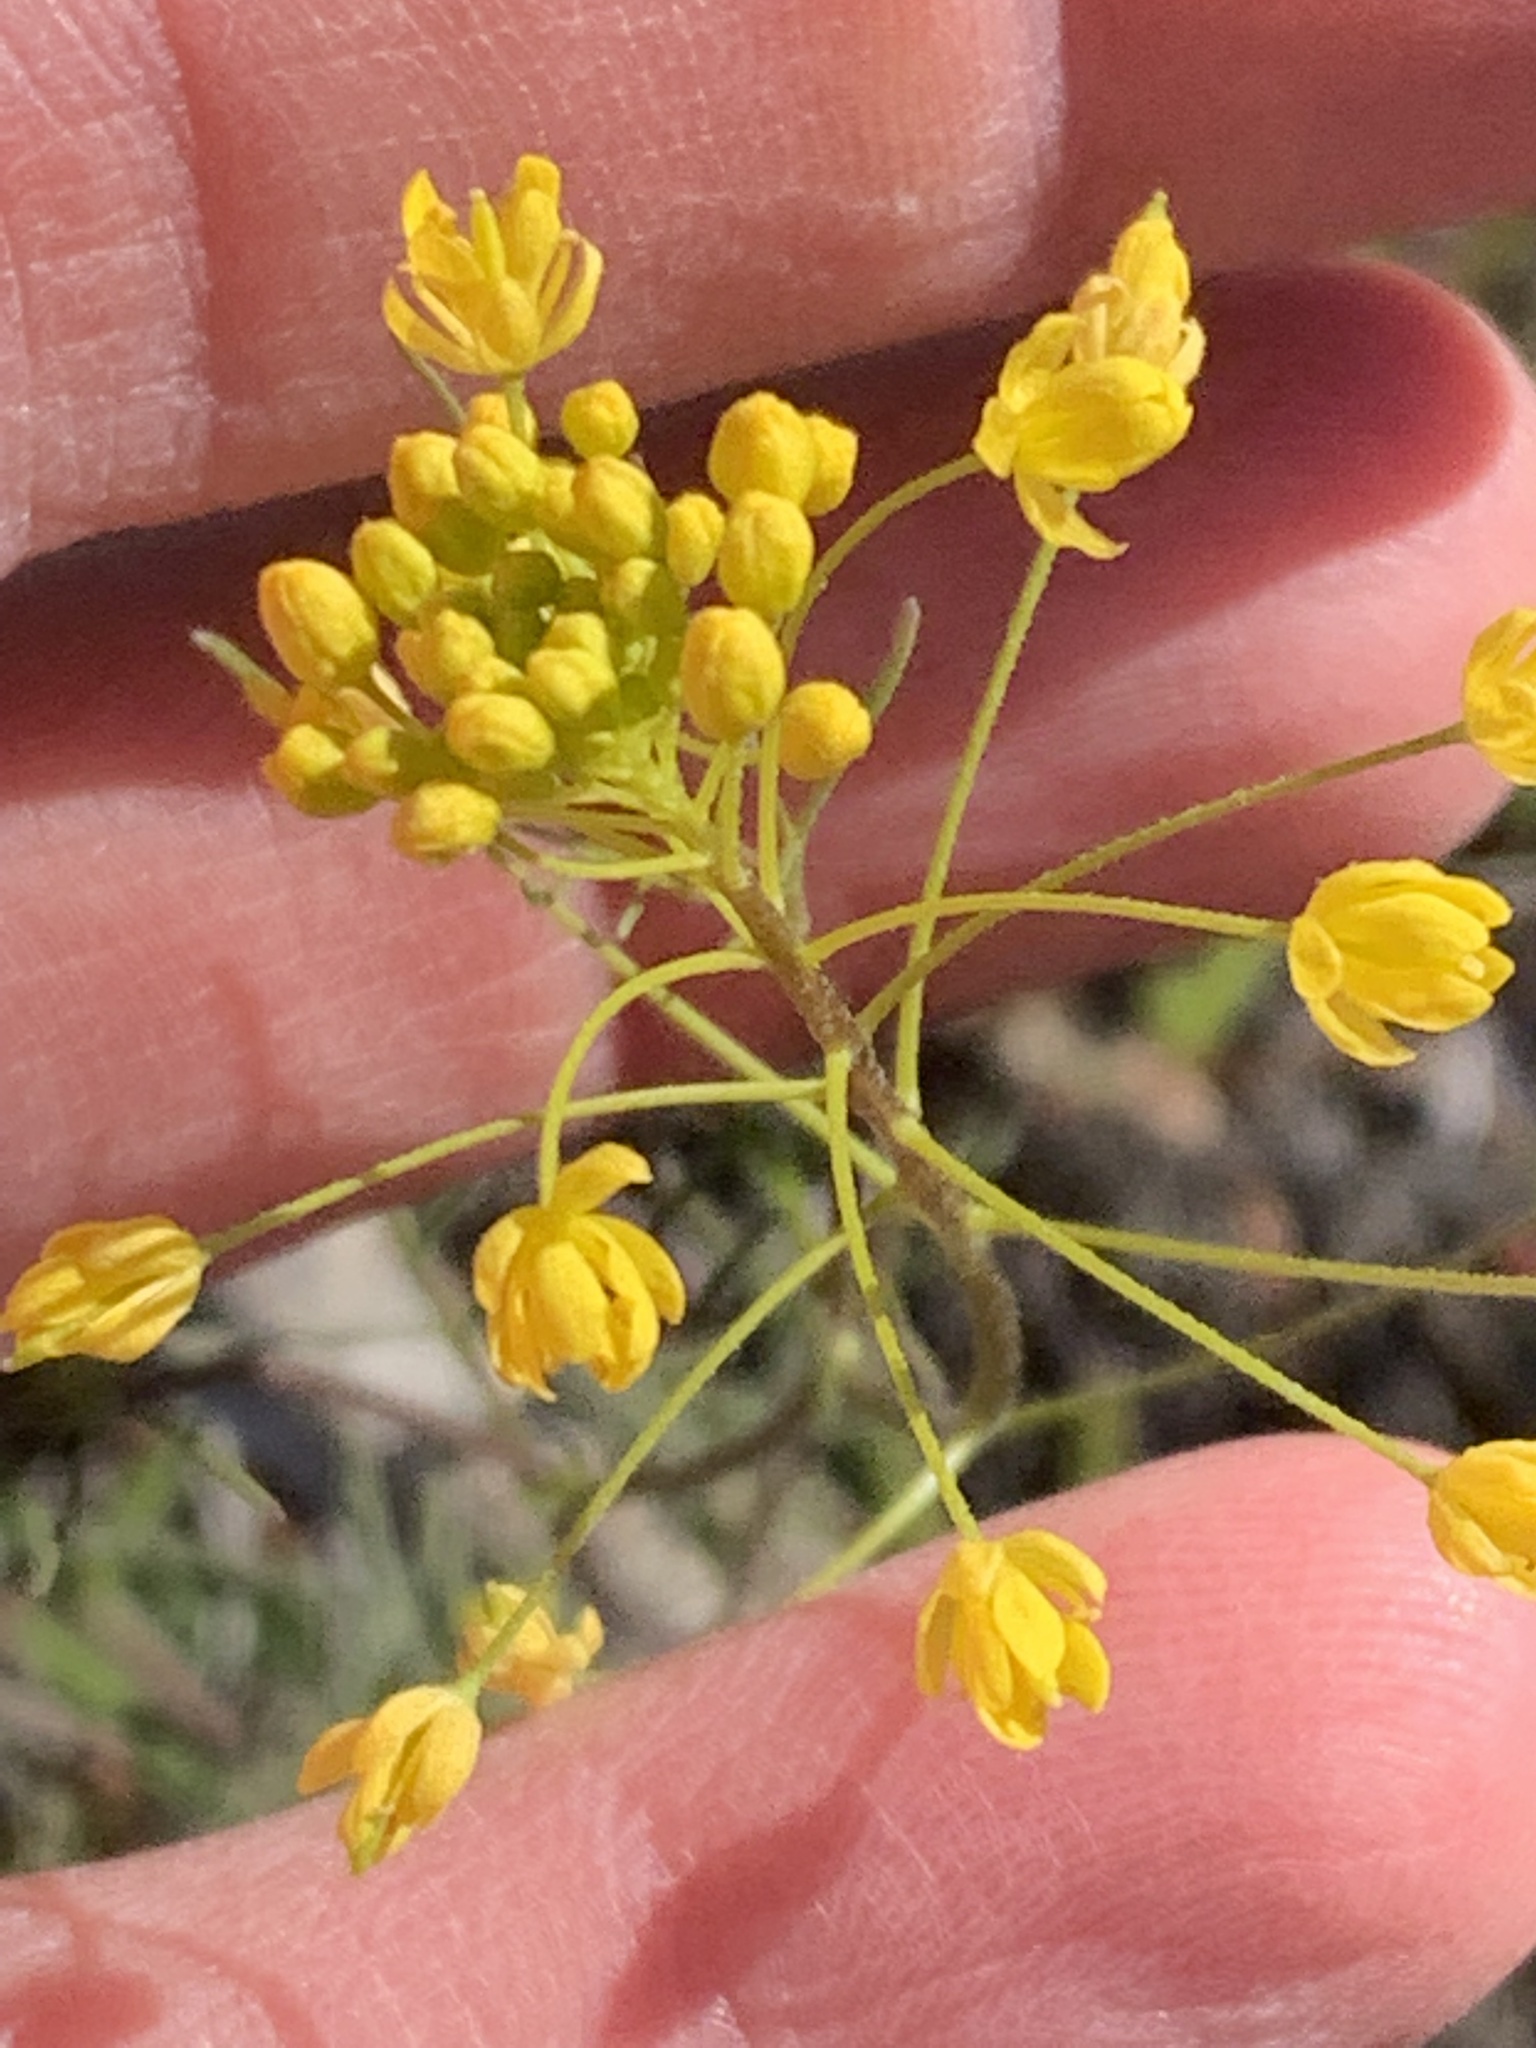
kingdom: Plantae
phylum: Tracheophyta
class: Magnoliopsida
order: Brassicales
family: Brassicaceae
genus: Descurainia
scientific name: Descurainia longepedicellata
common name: Erect-fruit mountain tansy mustard
